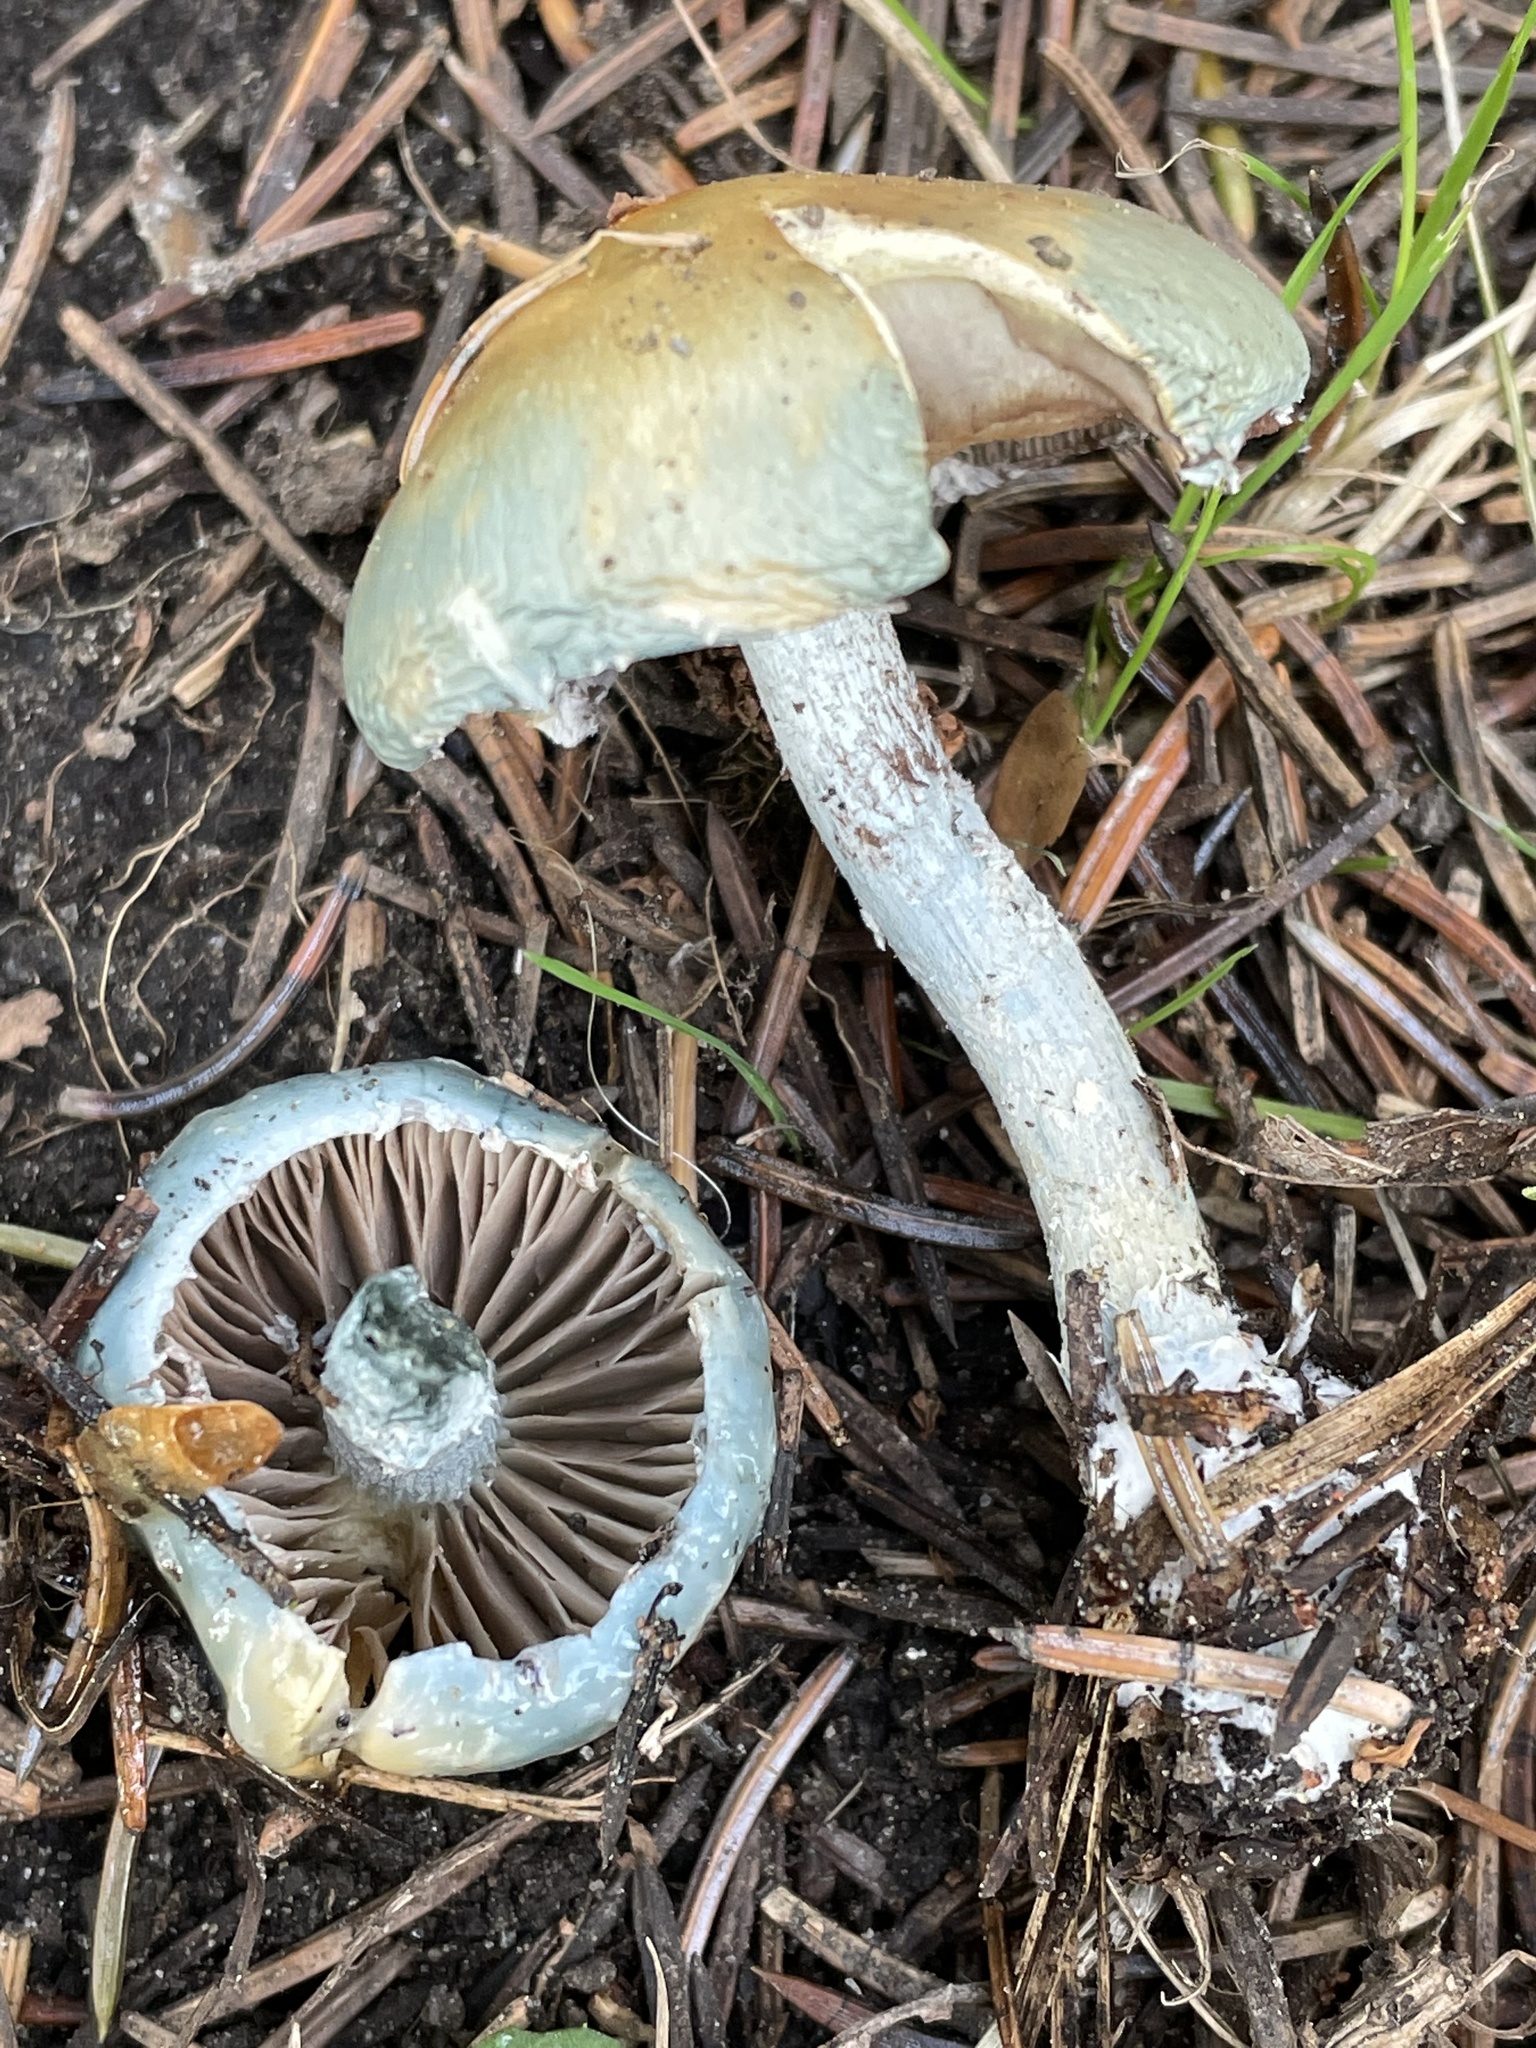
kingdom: Fungi
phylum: Basidiomycota
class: Agaricomycetes
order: Agaricales
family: Strophariaceae
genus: Stropharia
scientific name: Stropharia caerulea
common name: Blue roundhead
